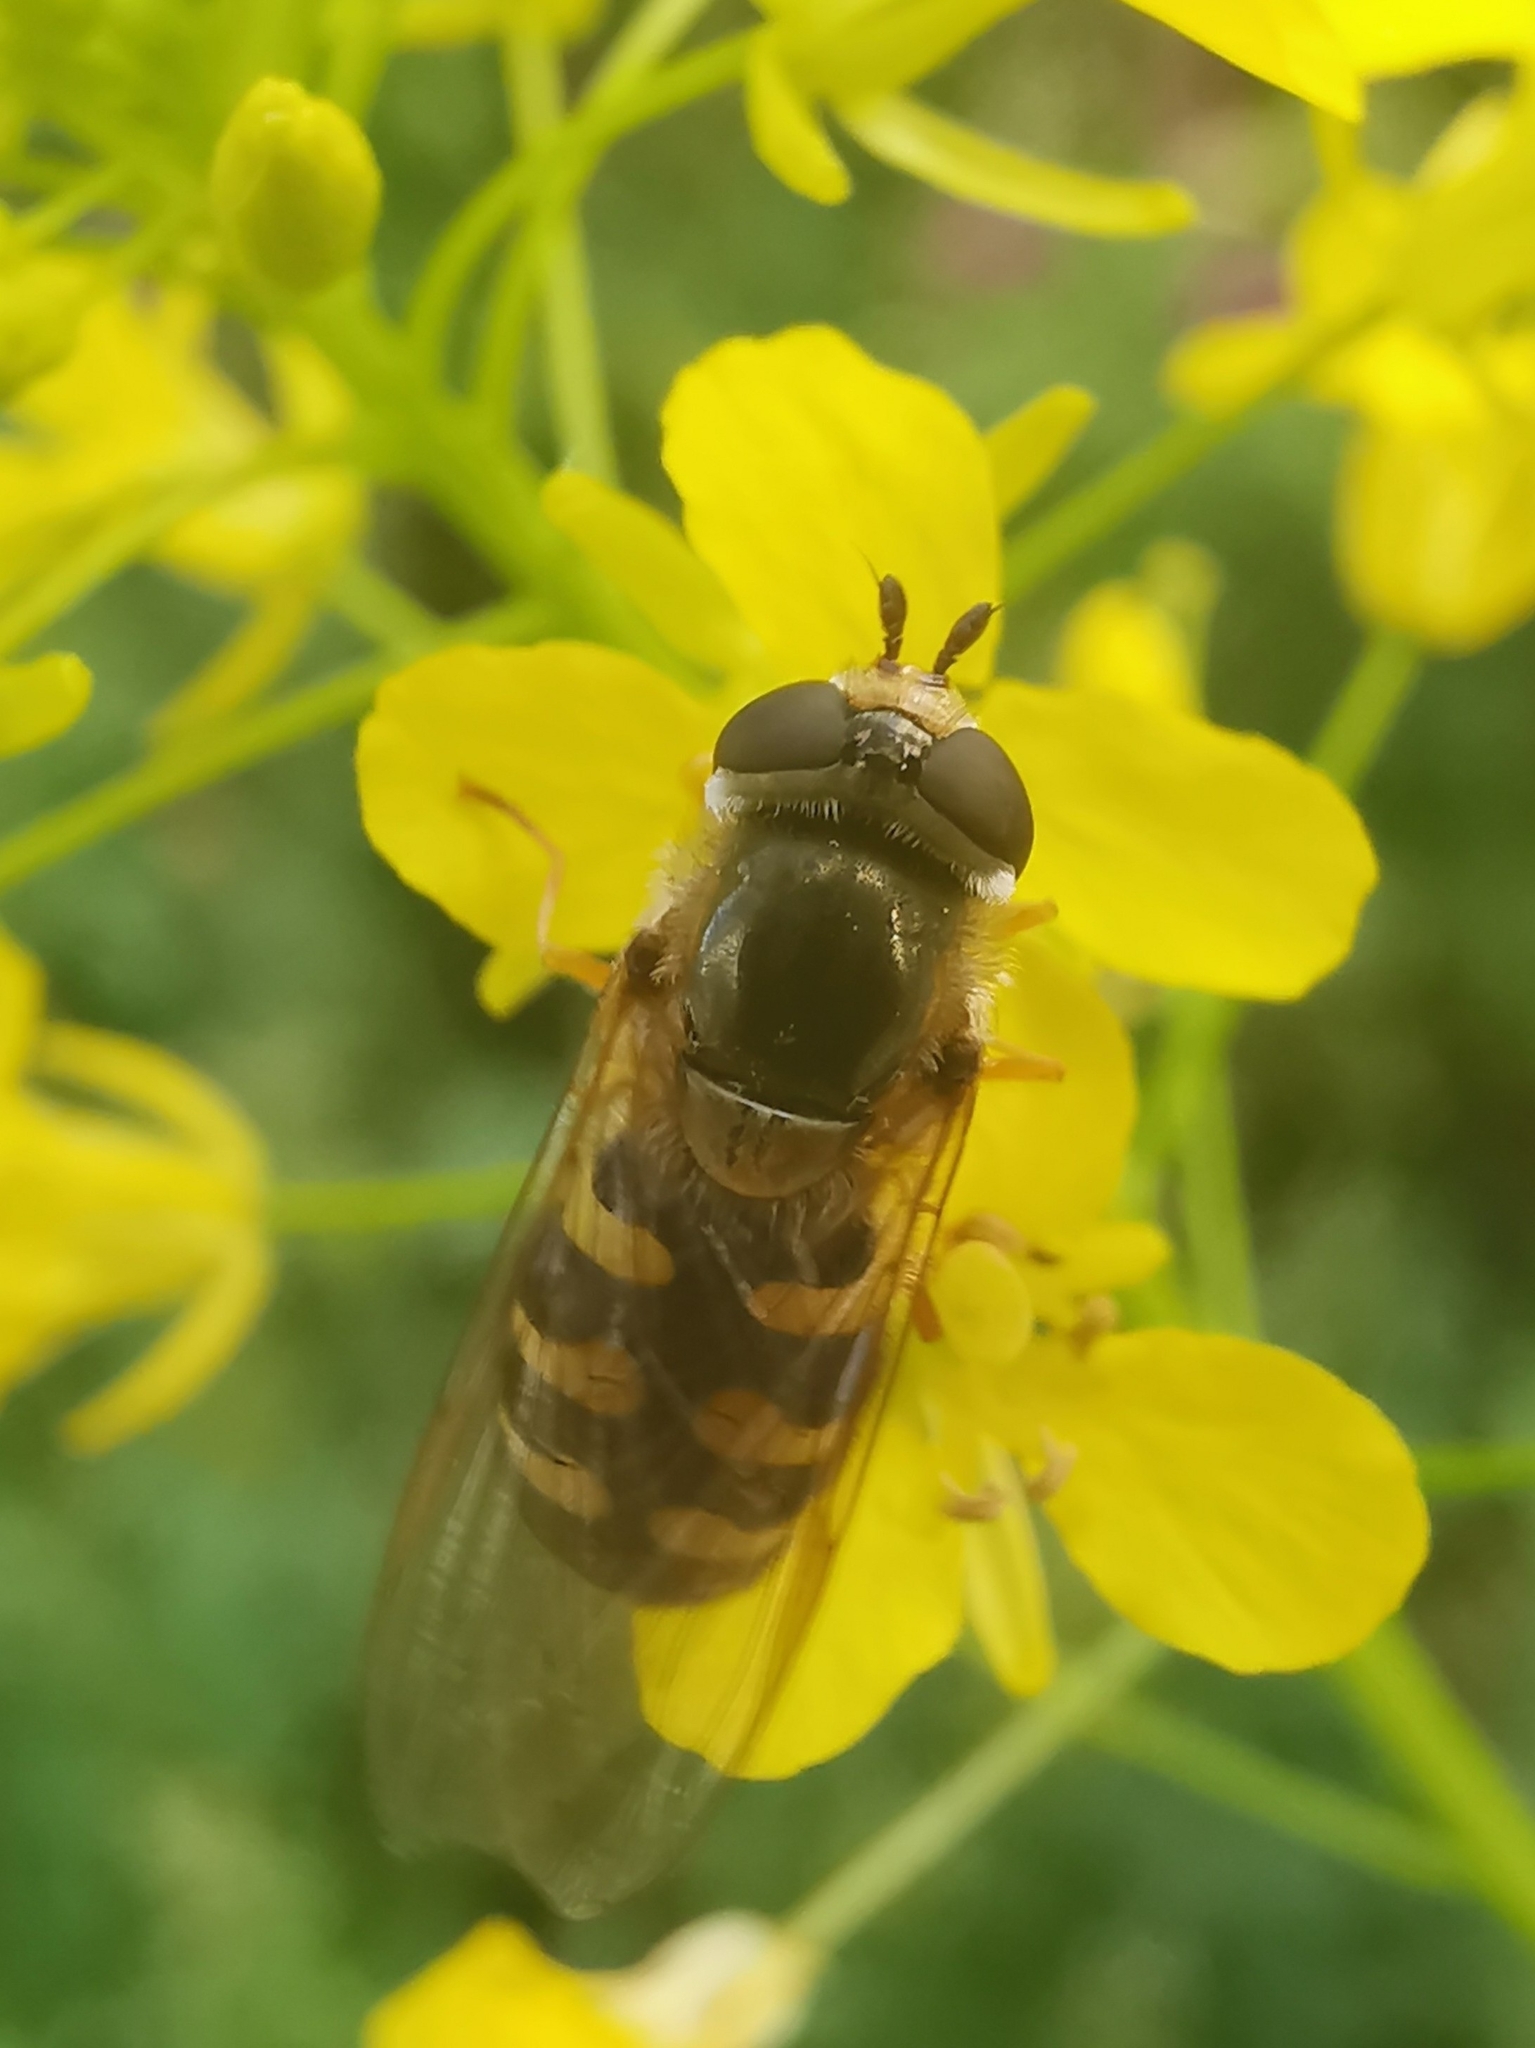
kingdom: Animalia
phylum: Arthropoda
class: Insecta
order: Diptera
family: Syrphidae
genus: Eupeodes
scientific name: Eupeodes corollae
